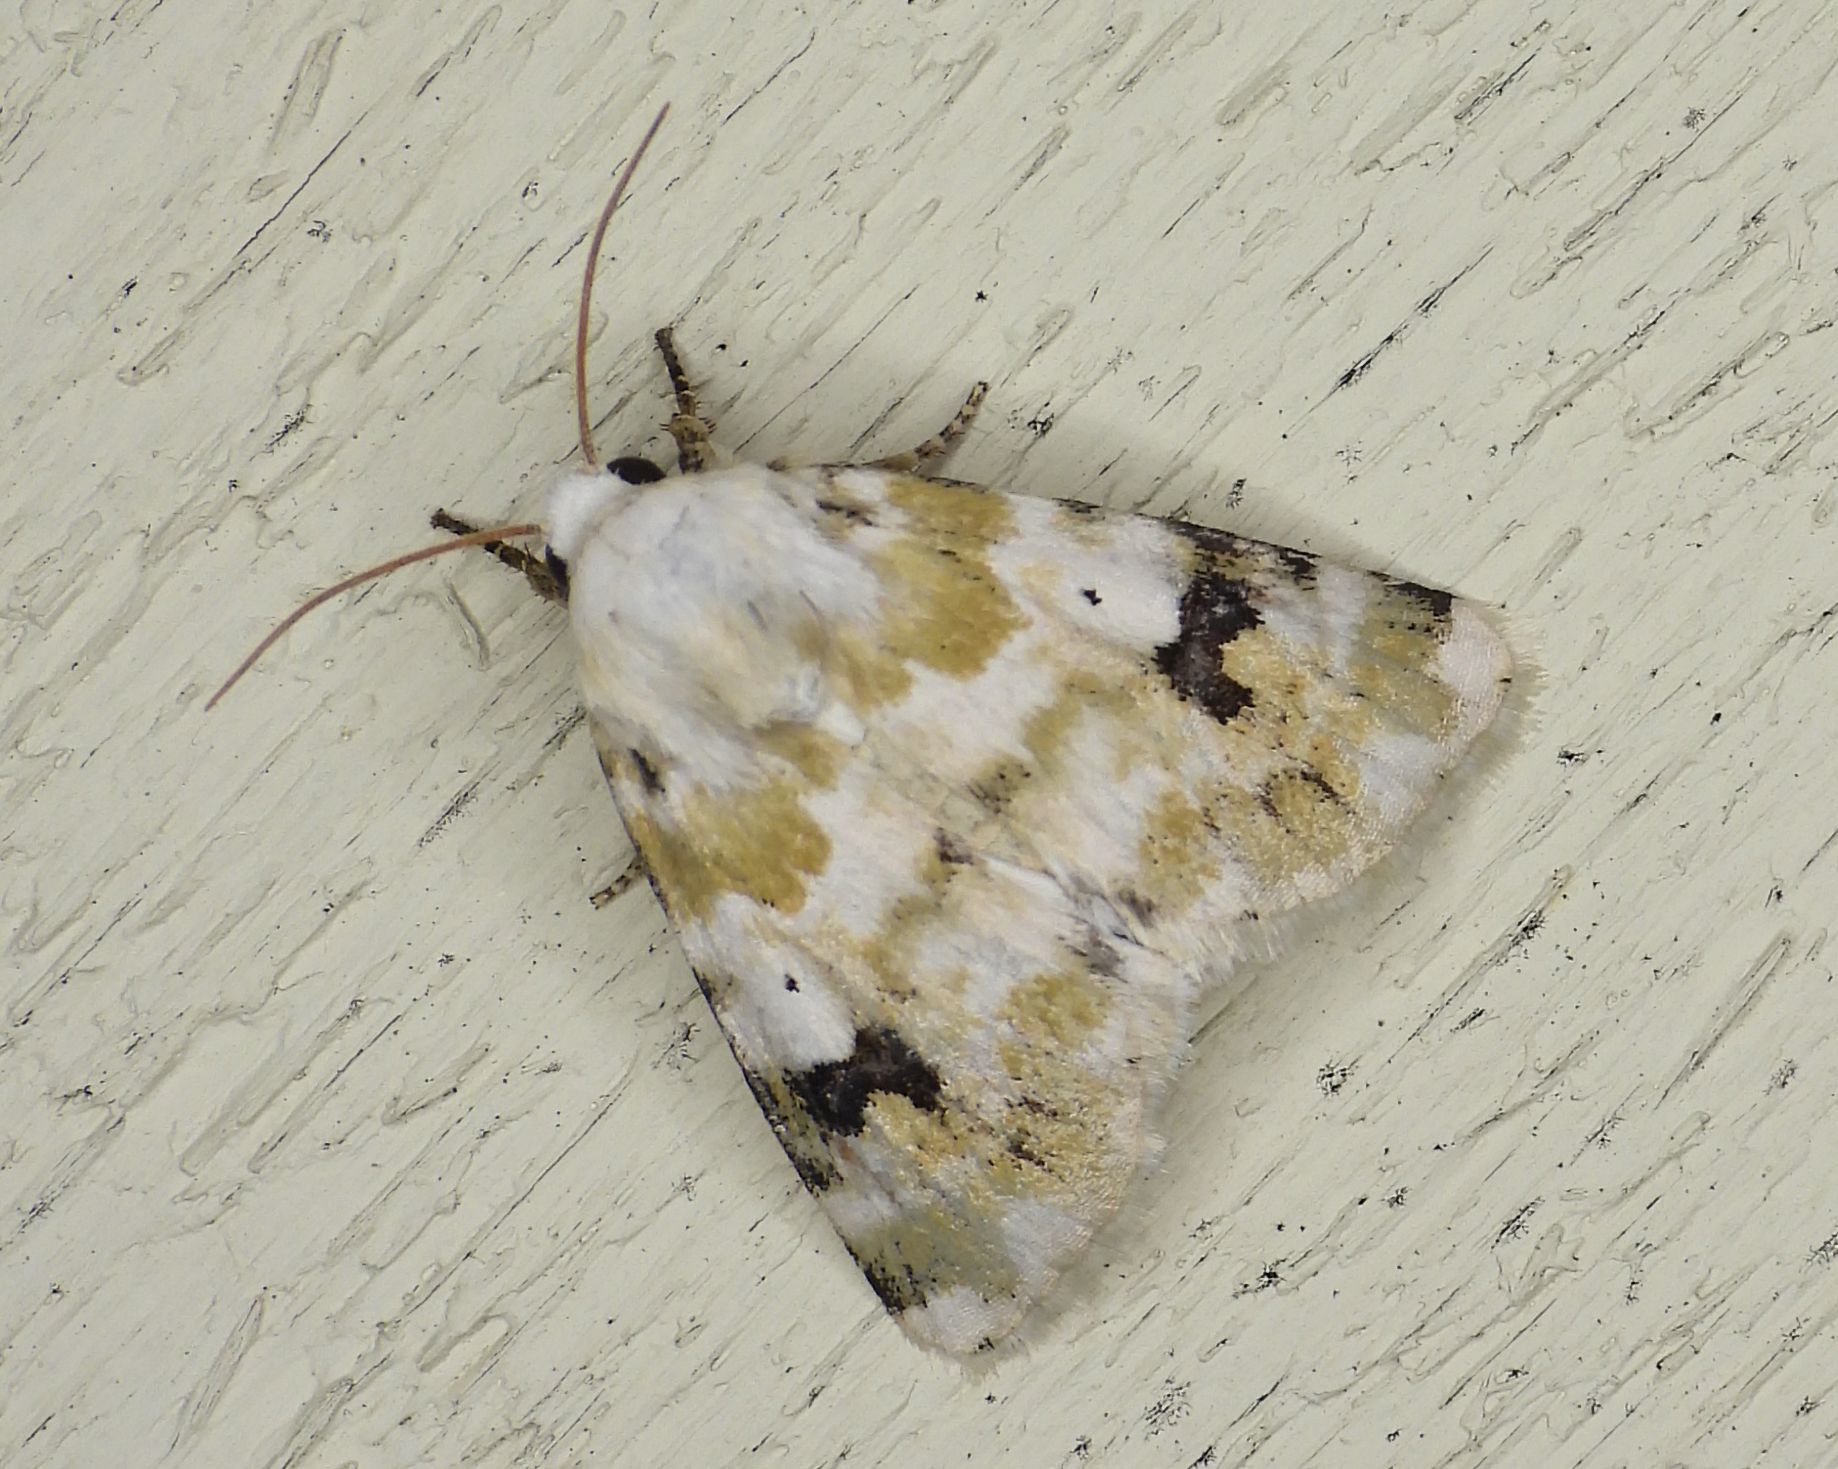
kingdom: Animalia
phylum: Arthropoda
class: Insecta
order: Lepidoptera
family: Noctuidae
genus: Schinia
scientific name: Schinia nundina
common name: Goldenrod flower moth
